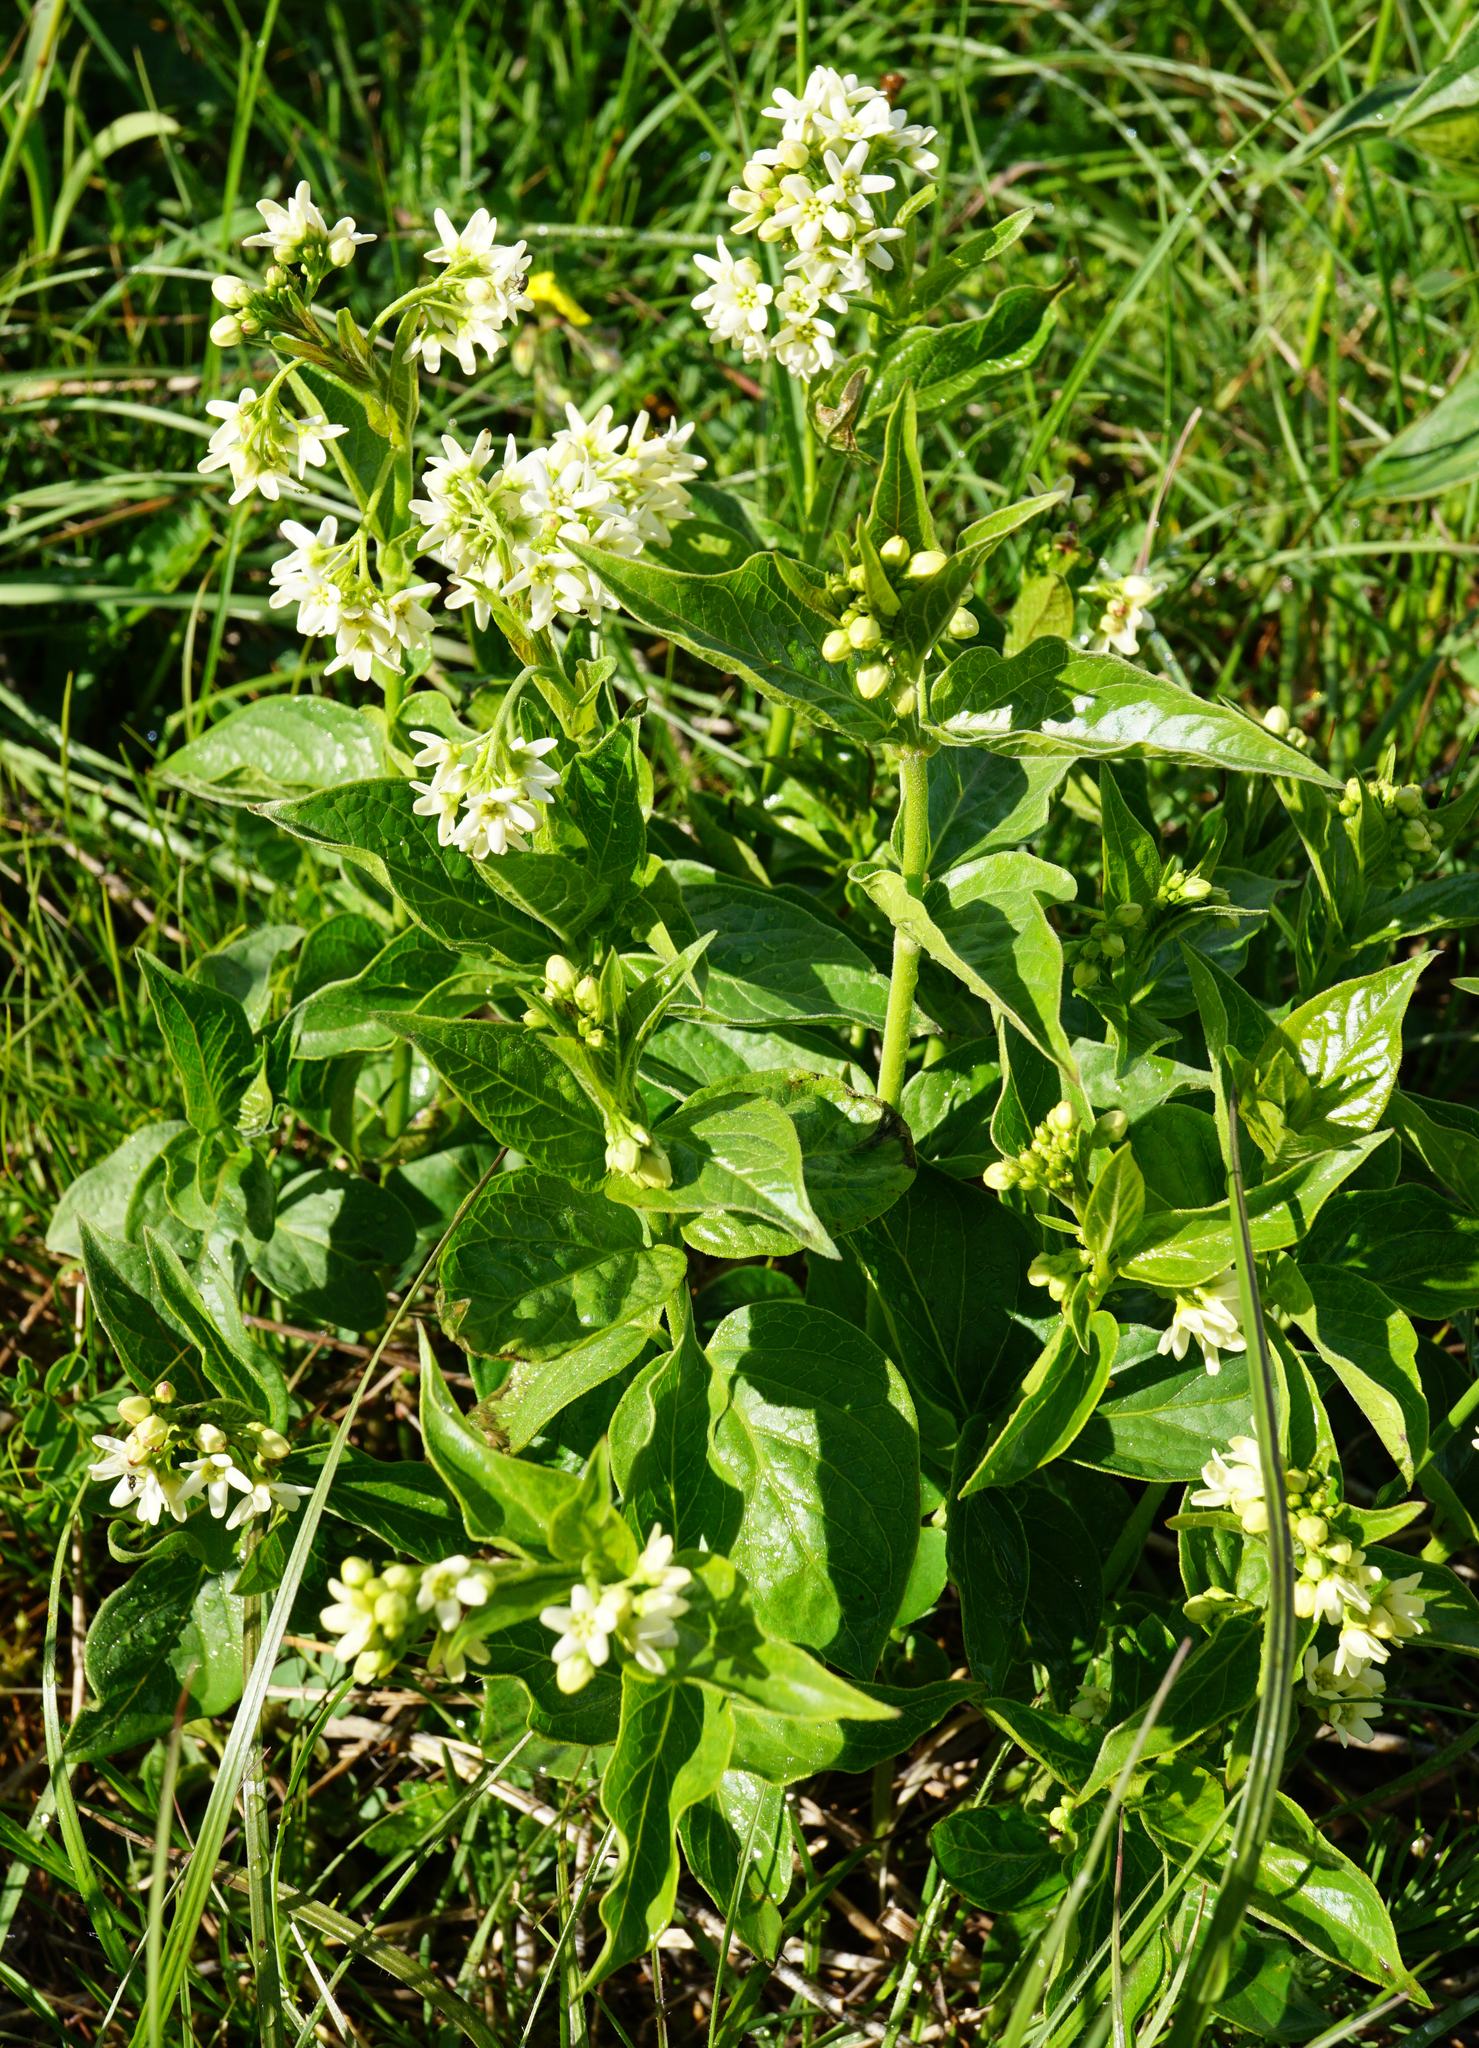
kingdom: Plantae
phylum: Tracheophyta
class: Magnoliopsida
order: Gentianales
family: Apocynaceae
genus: Vincetoxicum
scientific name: Vincetoxicum hirundinaria
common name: White swallowwort
